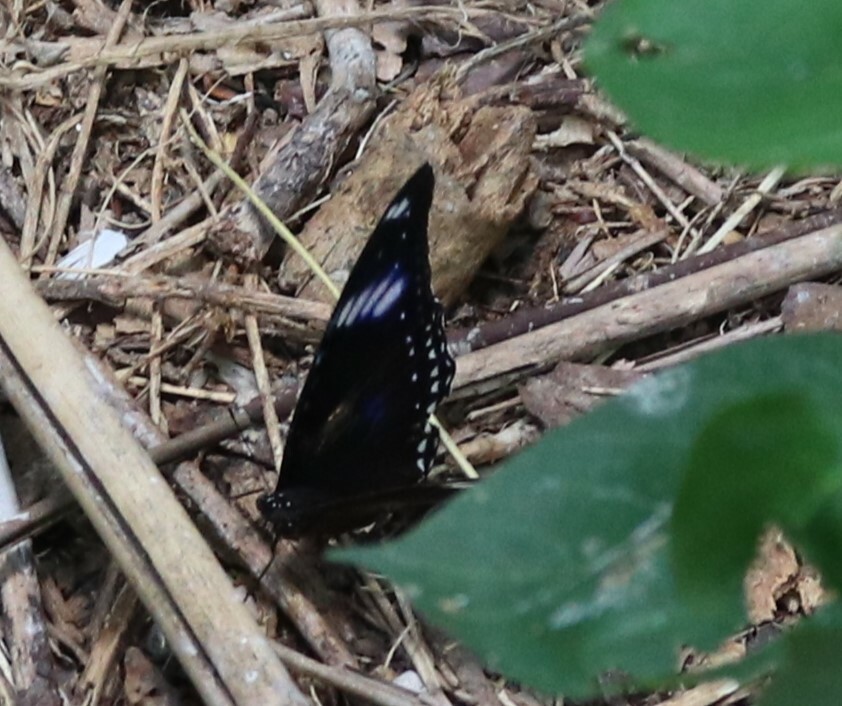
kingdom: Animalia
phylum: Arthropoda
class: Insecta
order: Lepidoptera
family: Nymphalidae
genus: Hypolimnas
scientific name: Hypolimnas bolina
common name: Great eggfly
